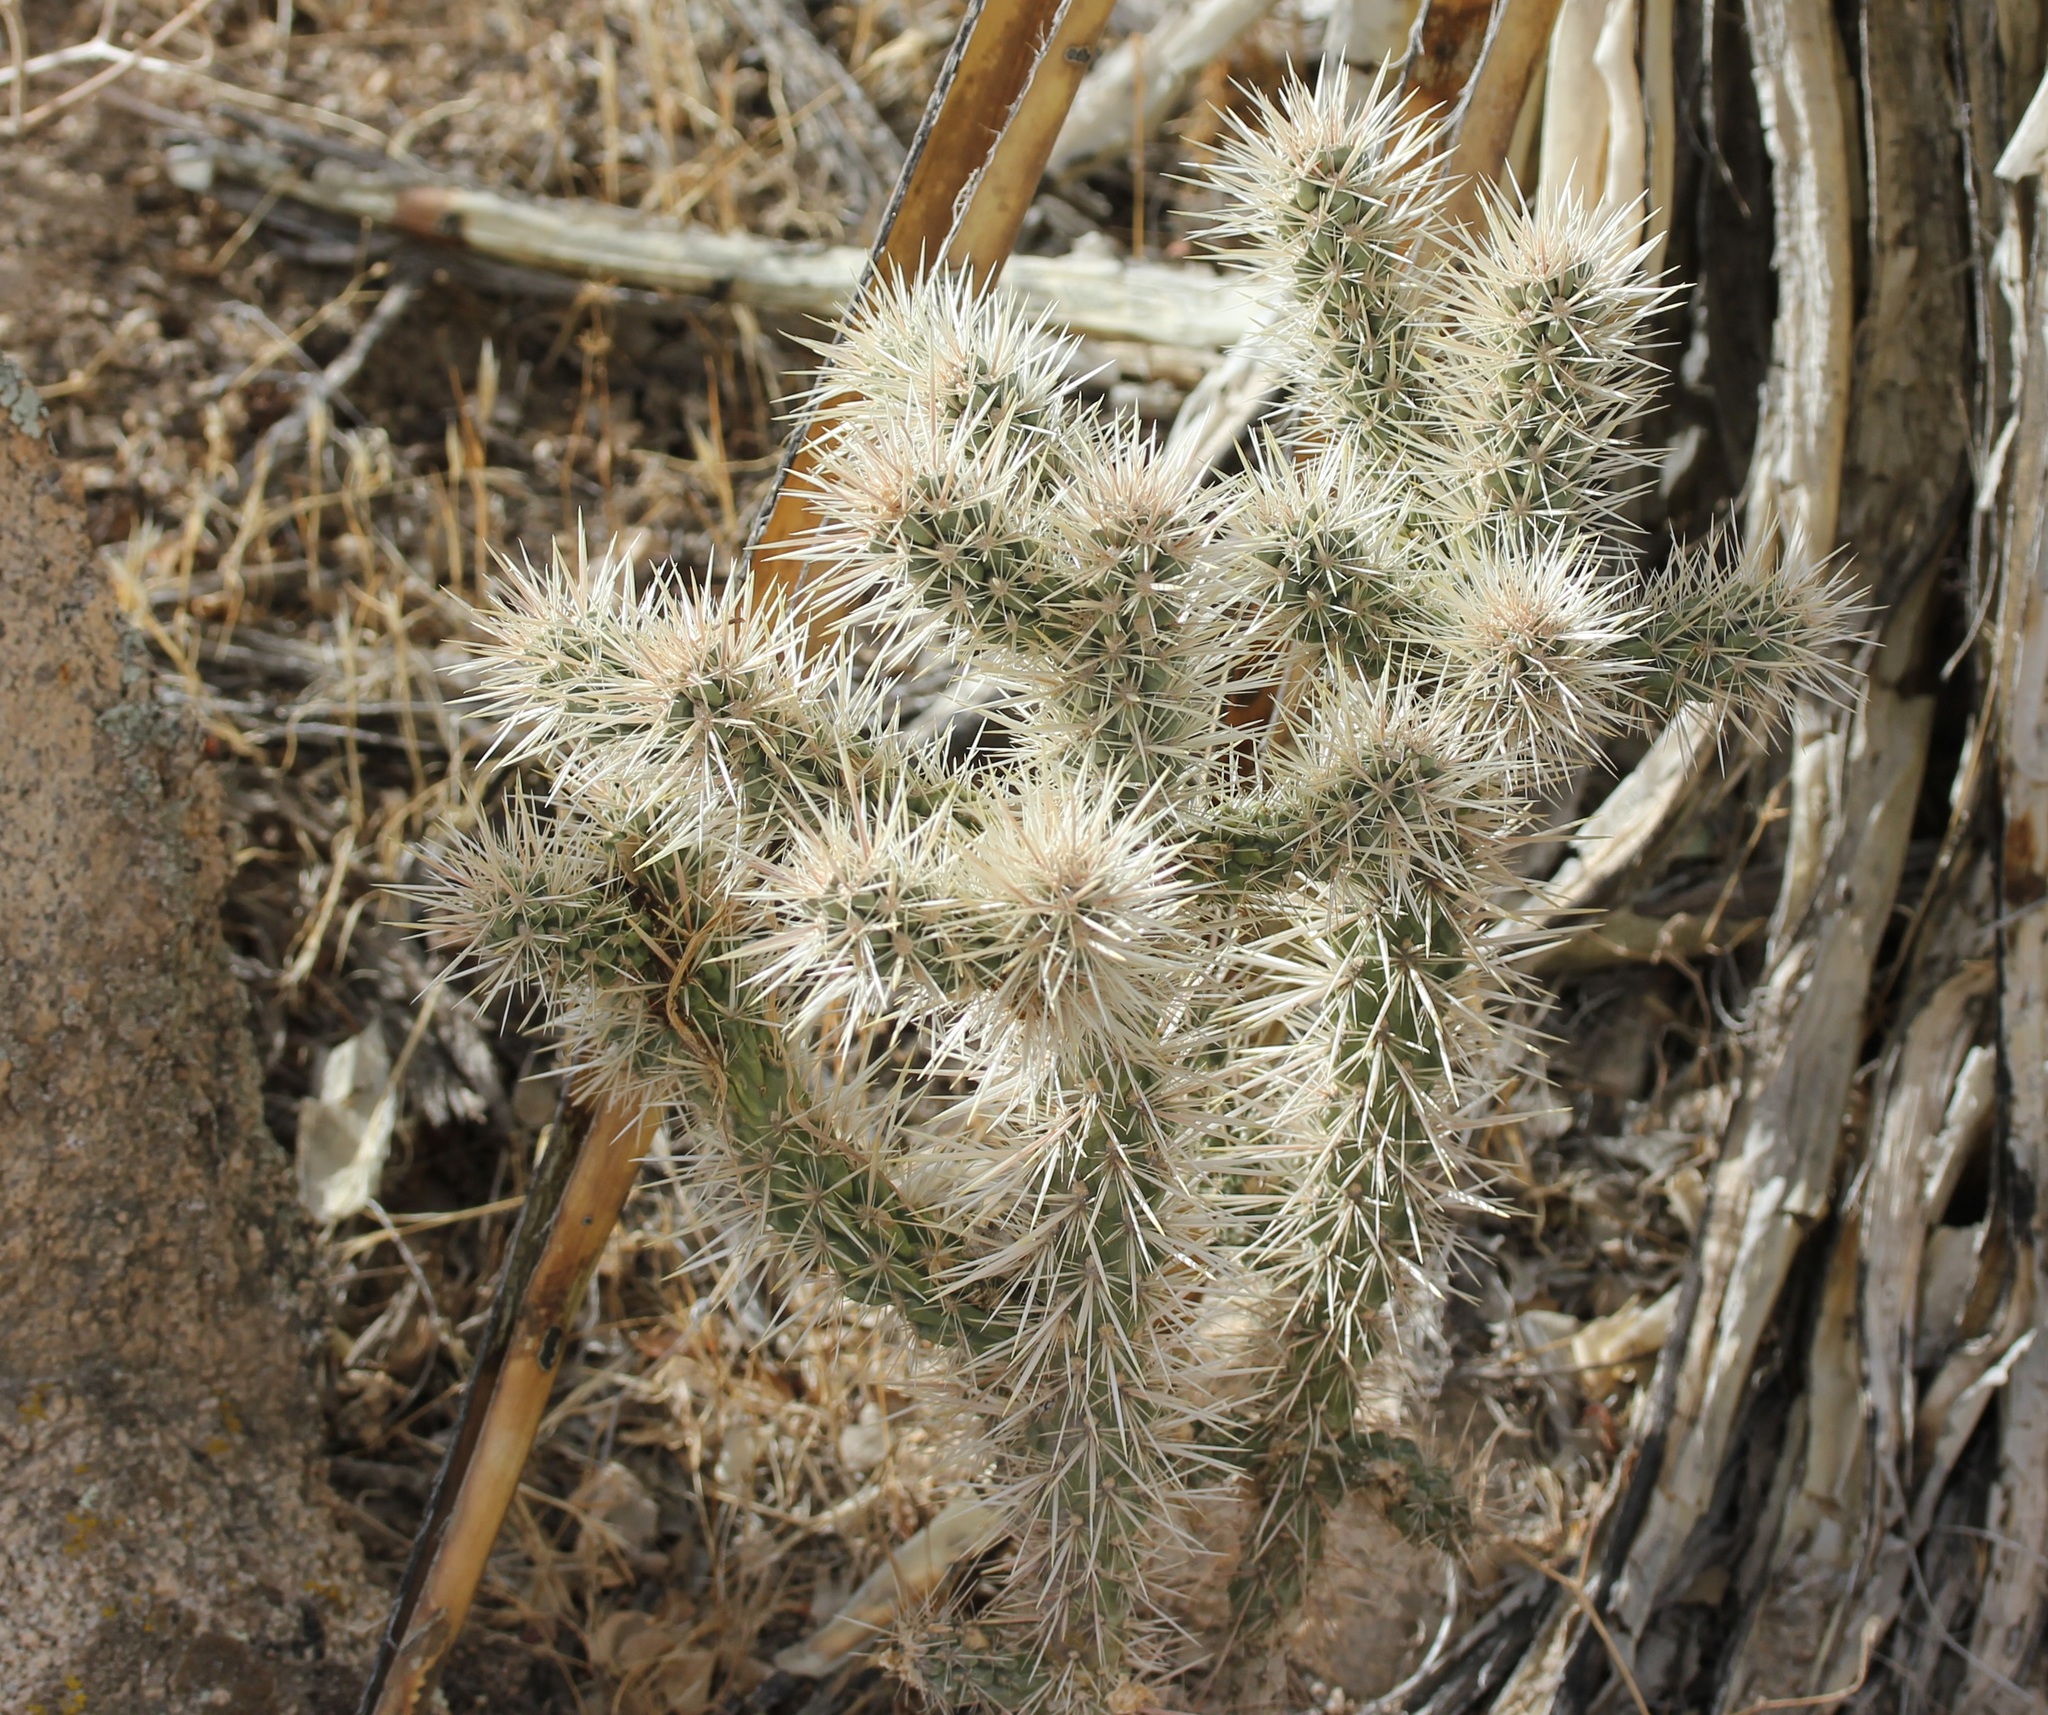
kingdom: Plantae
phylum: Tracheophyta
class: Magnoliopsida
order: Caryophyllales
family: Cactaceae
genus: Cylindropuntia
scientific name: Cylindropuntia echinocarpa
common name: Ground cholla
